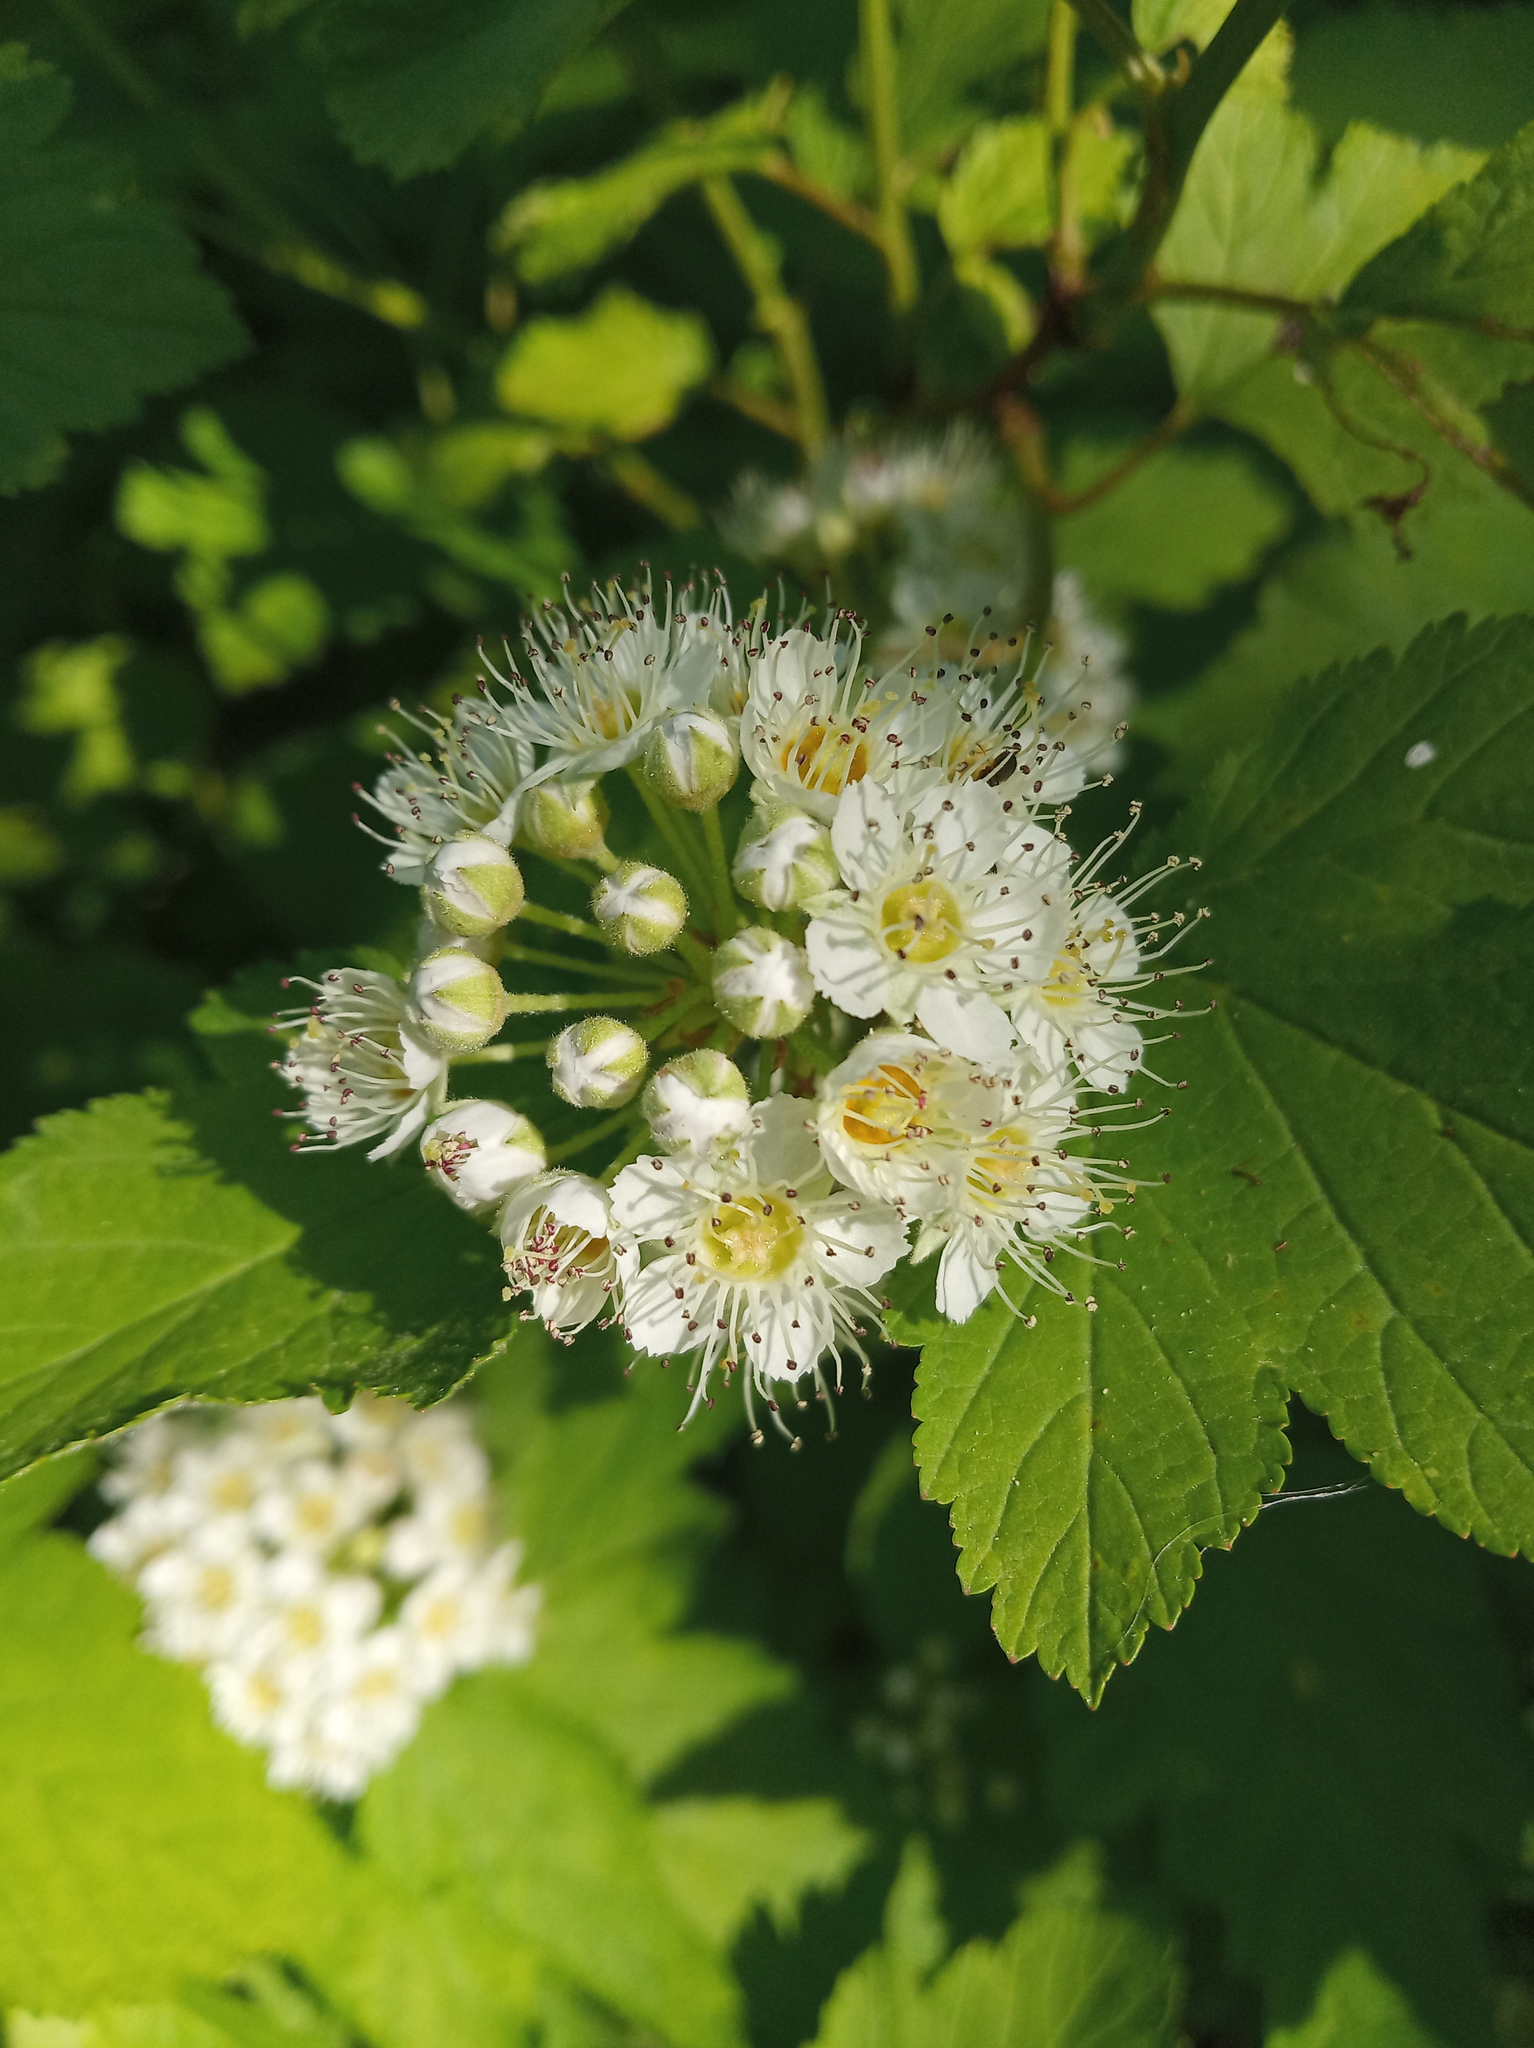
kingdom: Plantae
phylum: Tracheophyta
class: Magnoliopsida
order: Rosales
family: Rosaceae
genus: Physocarpus
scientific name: Physocarpus opulifolius
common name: Ninebark
